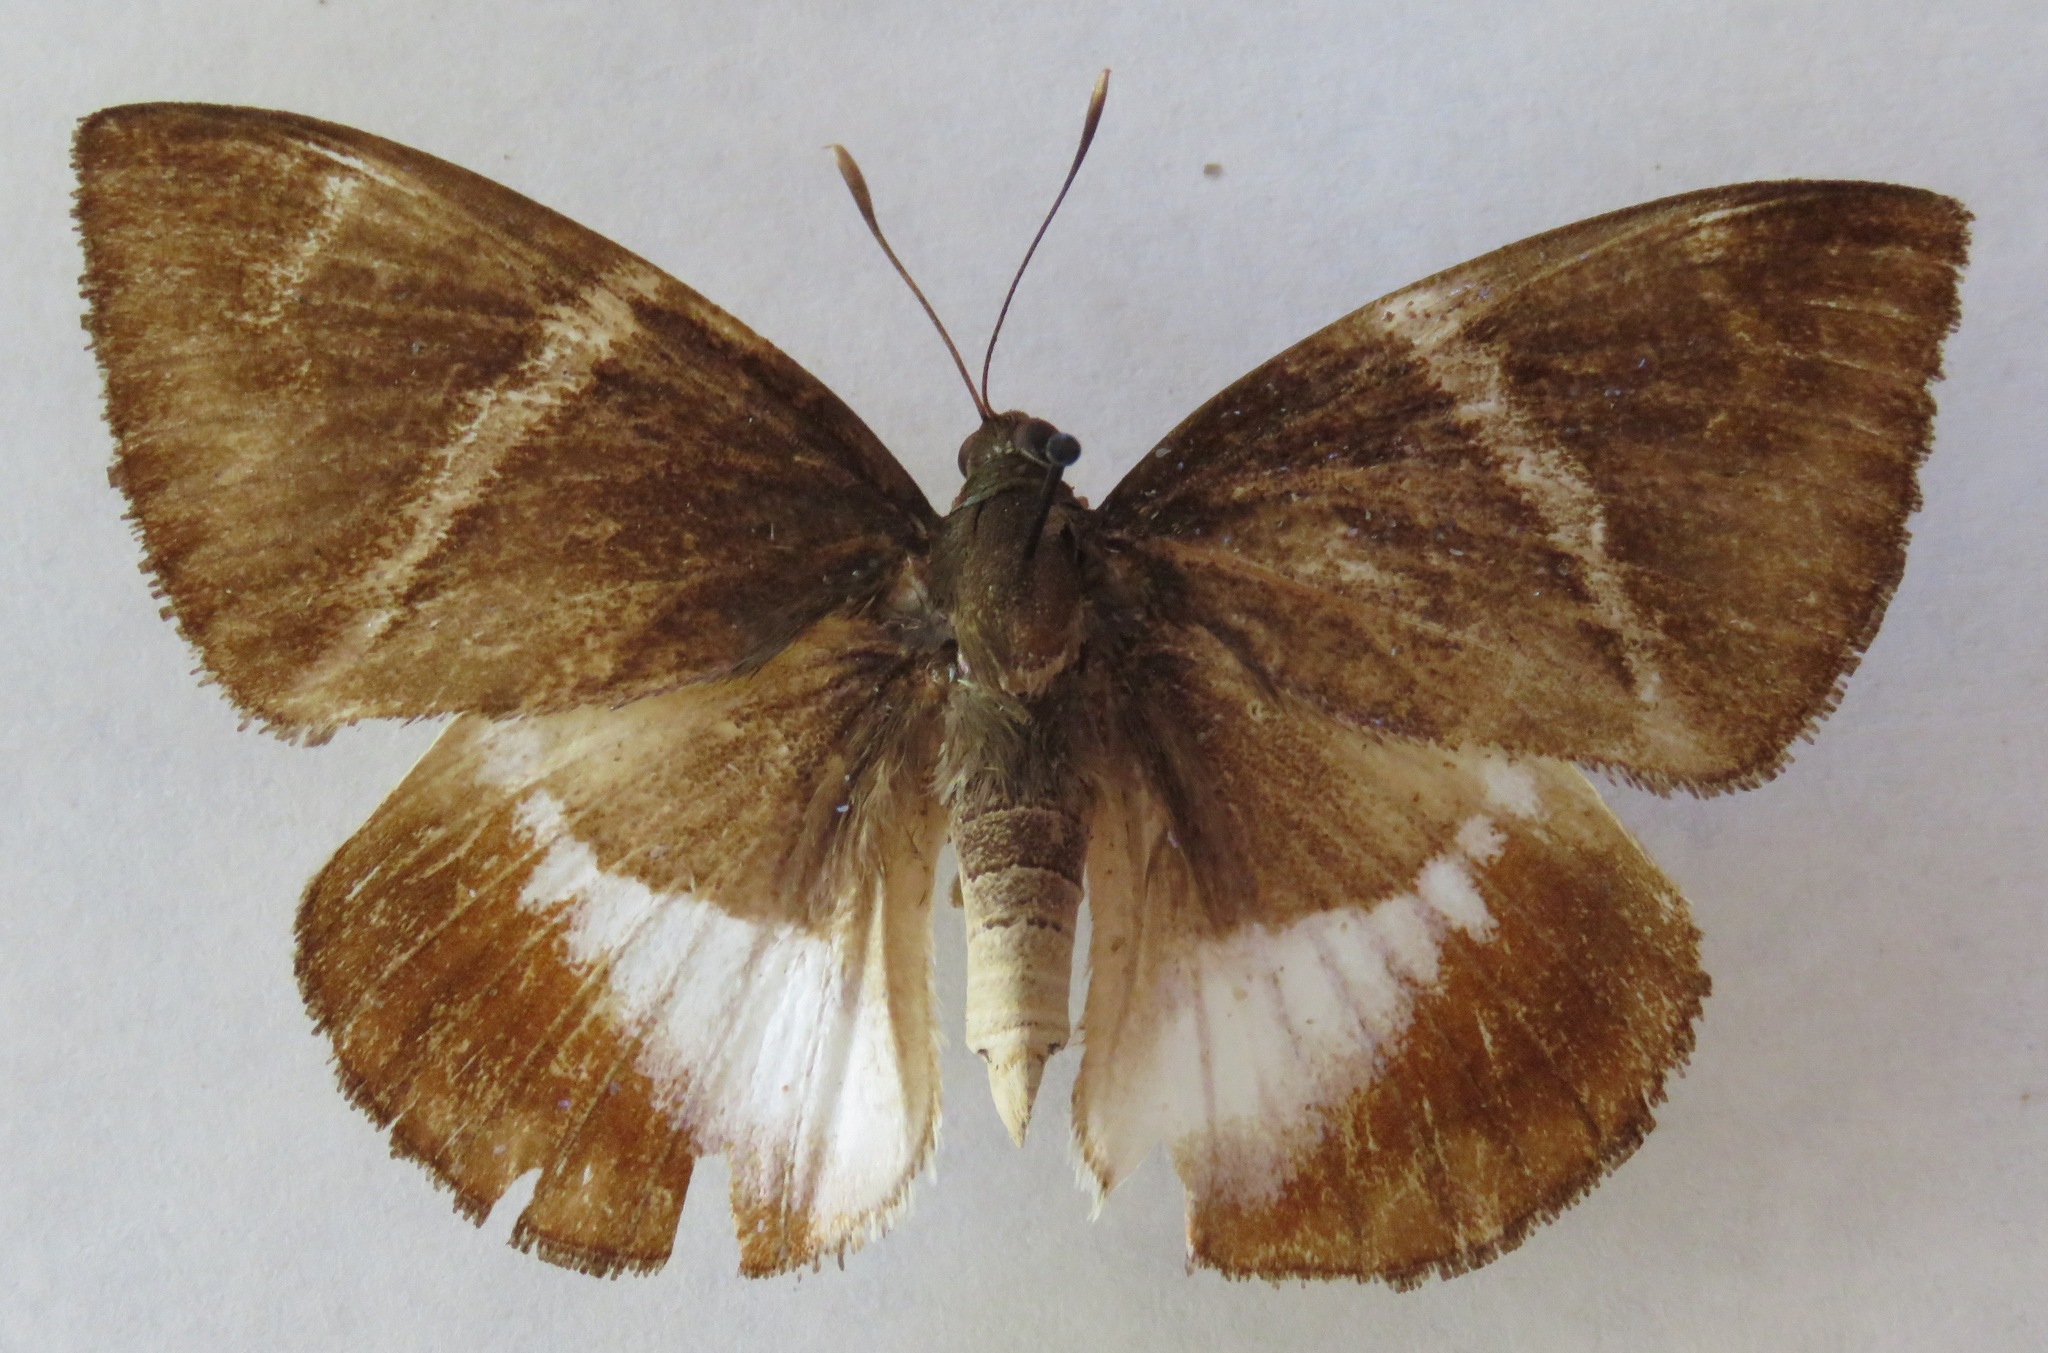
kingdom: Animalia
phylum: Arthropoda
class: Insecta
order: Lepidoptera
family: Castniidae
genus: Castniomera
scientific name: Castniomera atymnius
